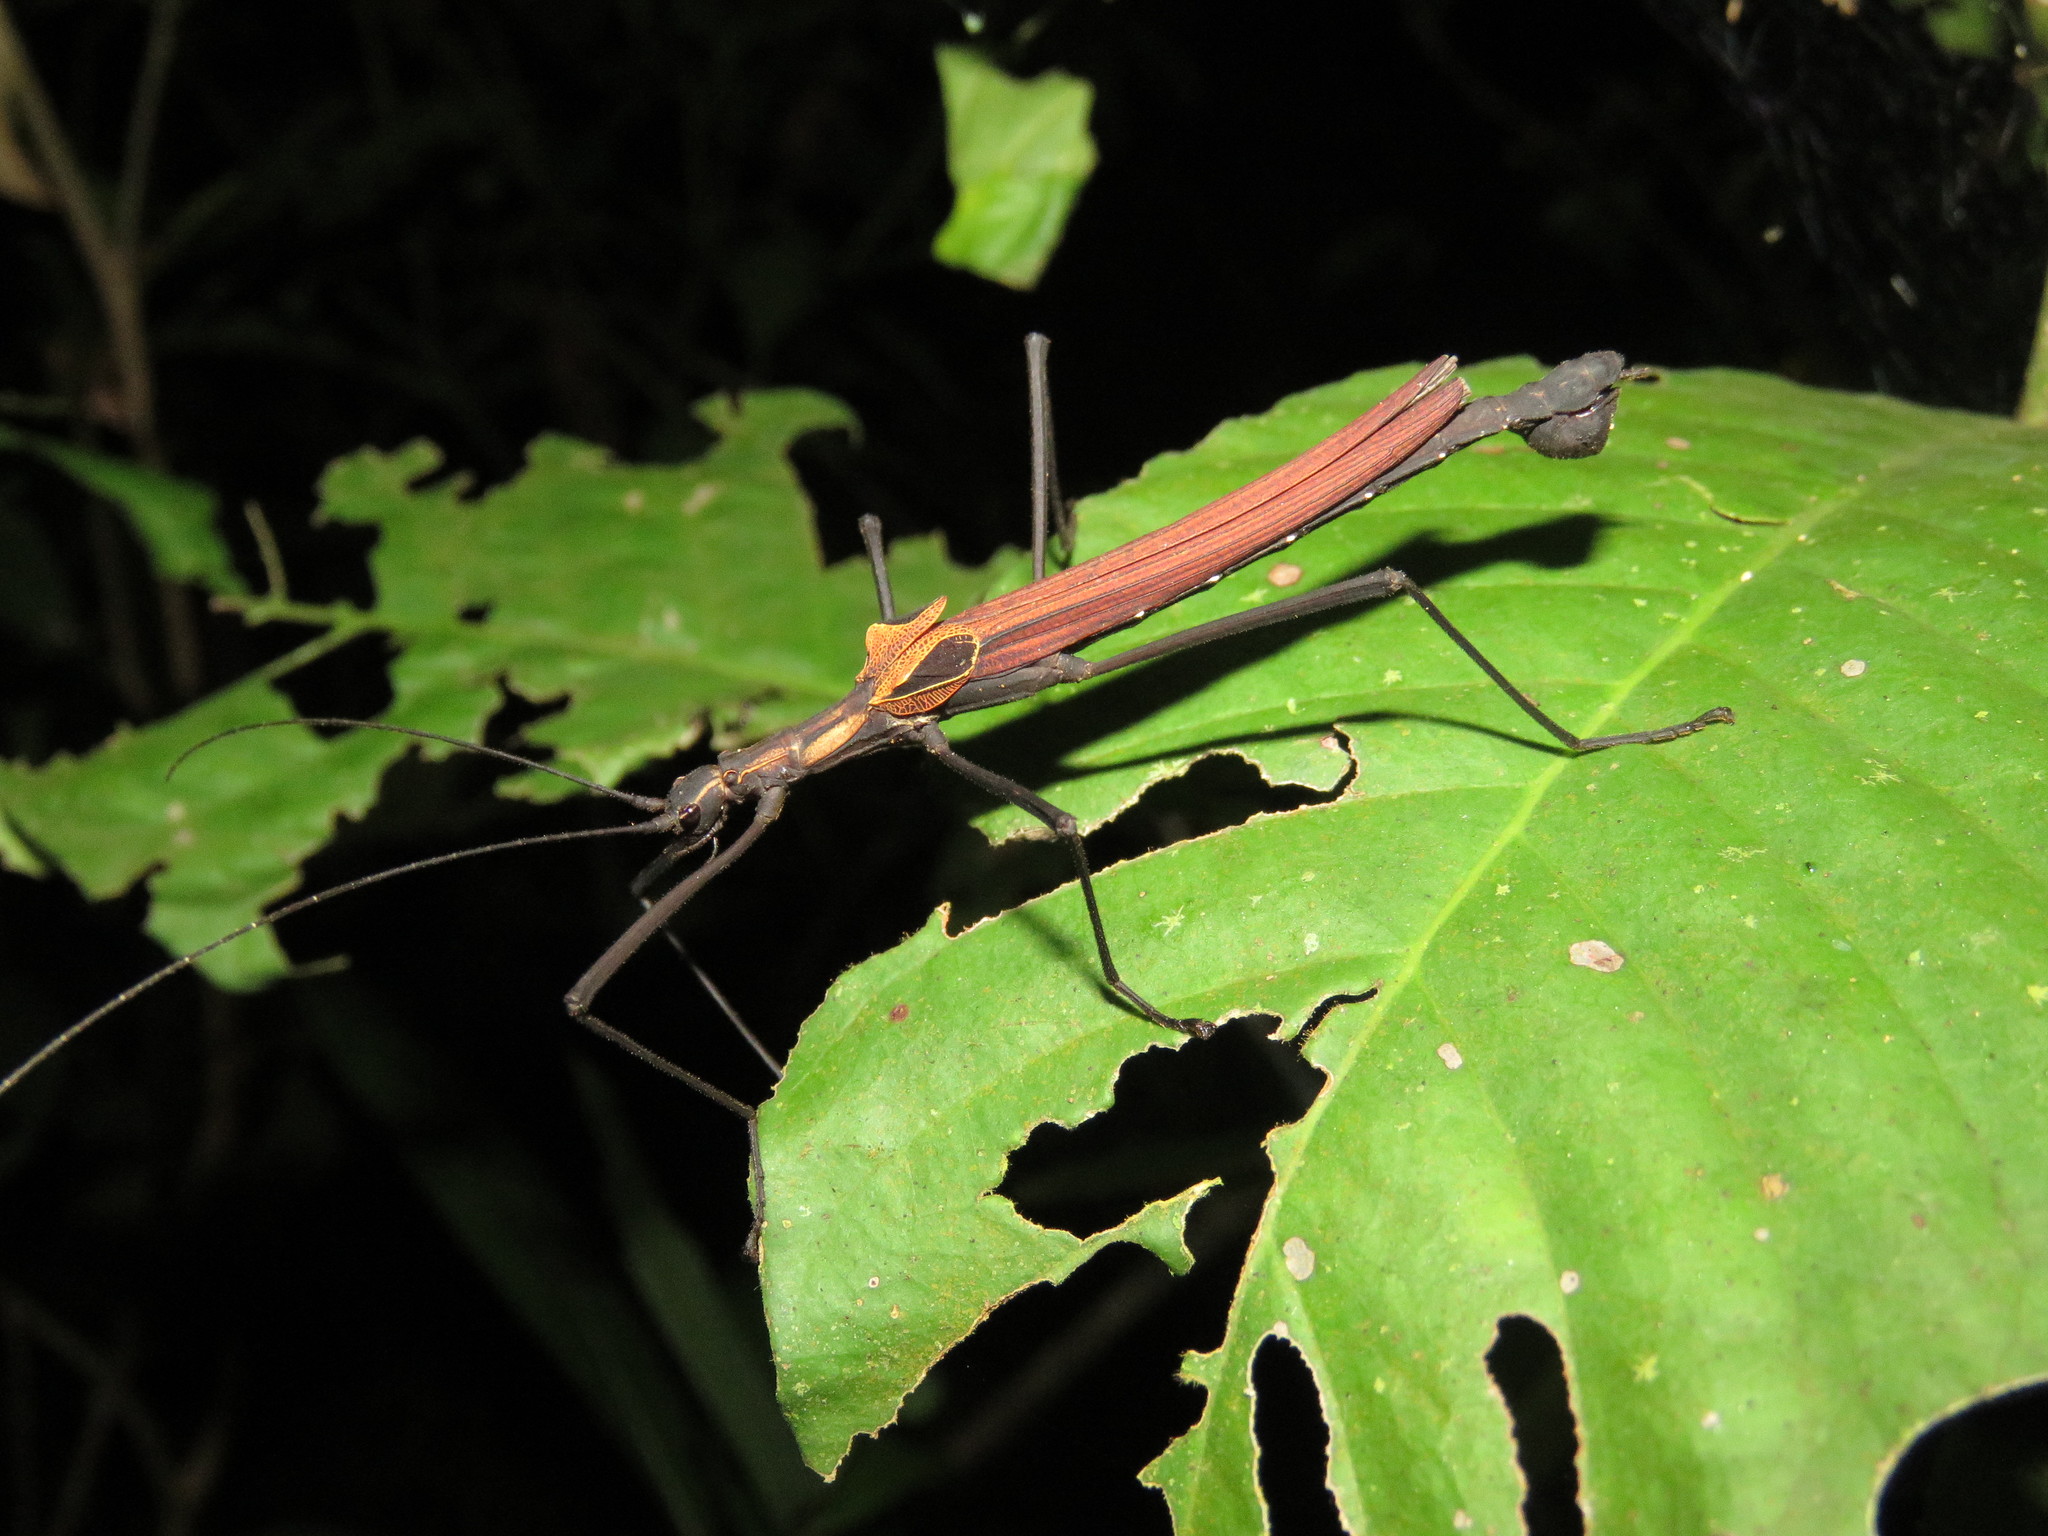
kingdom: Animalia
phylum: Arthropoda
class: Insecta
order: Phasmida
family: Pseudophasmatidae
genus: Pseudophasma
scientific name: Pseudophasma castaneum
